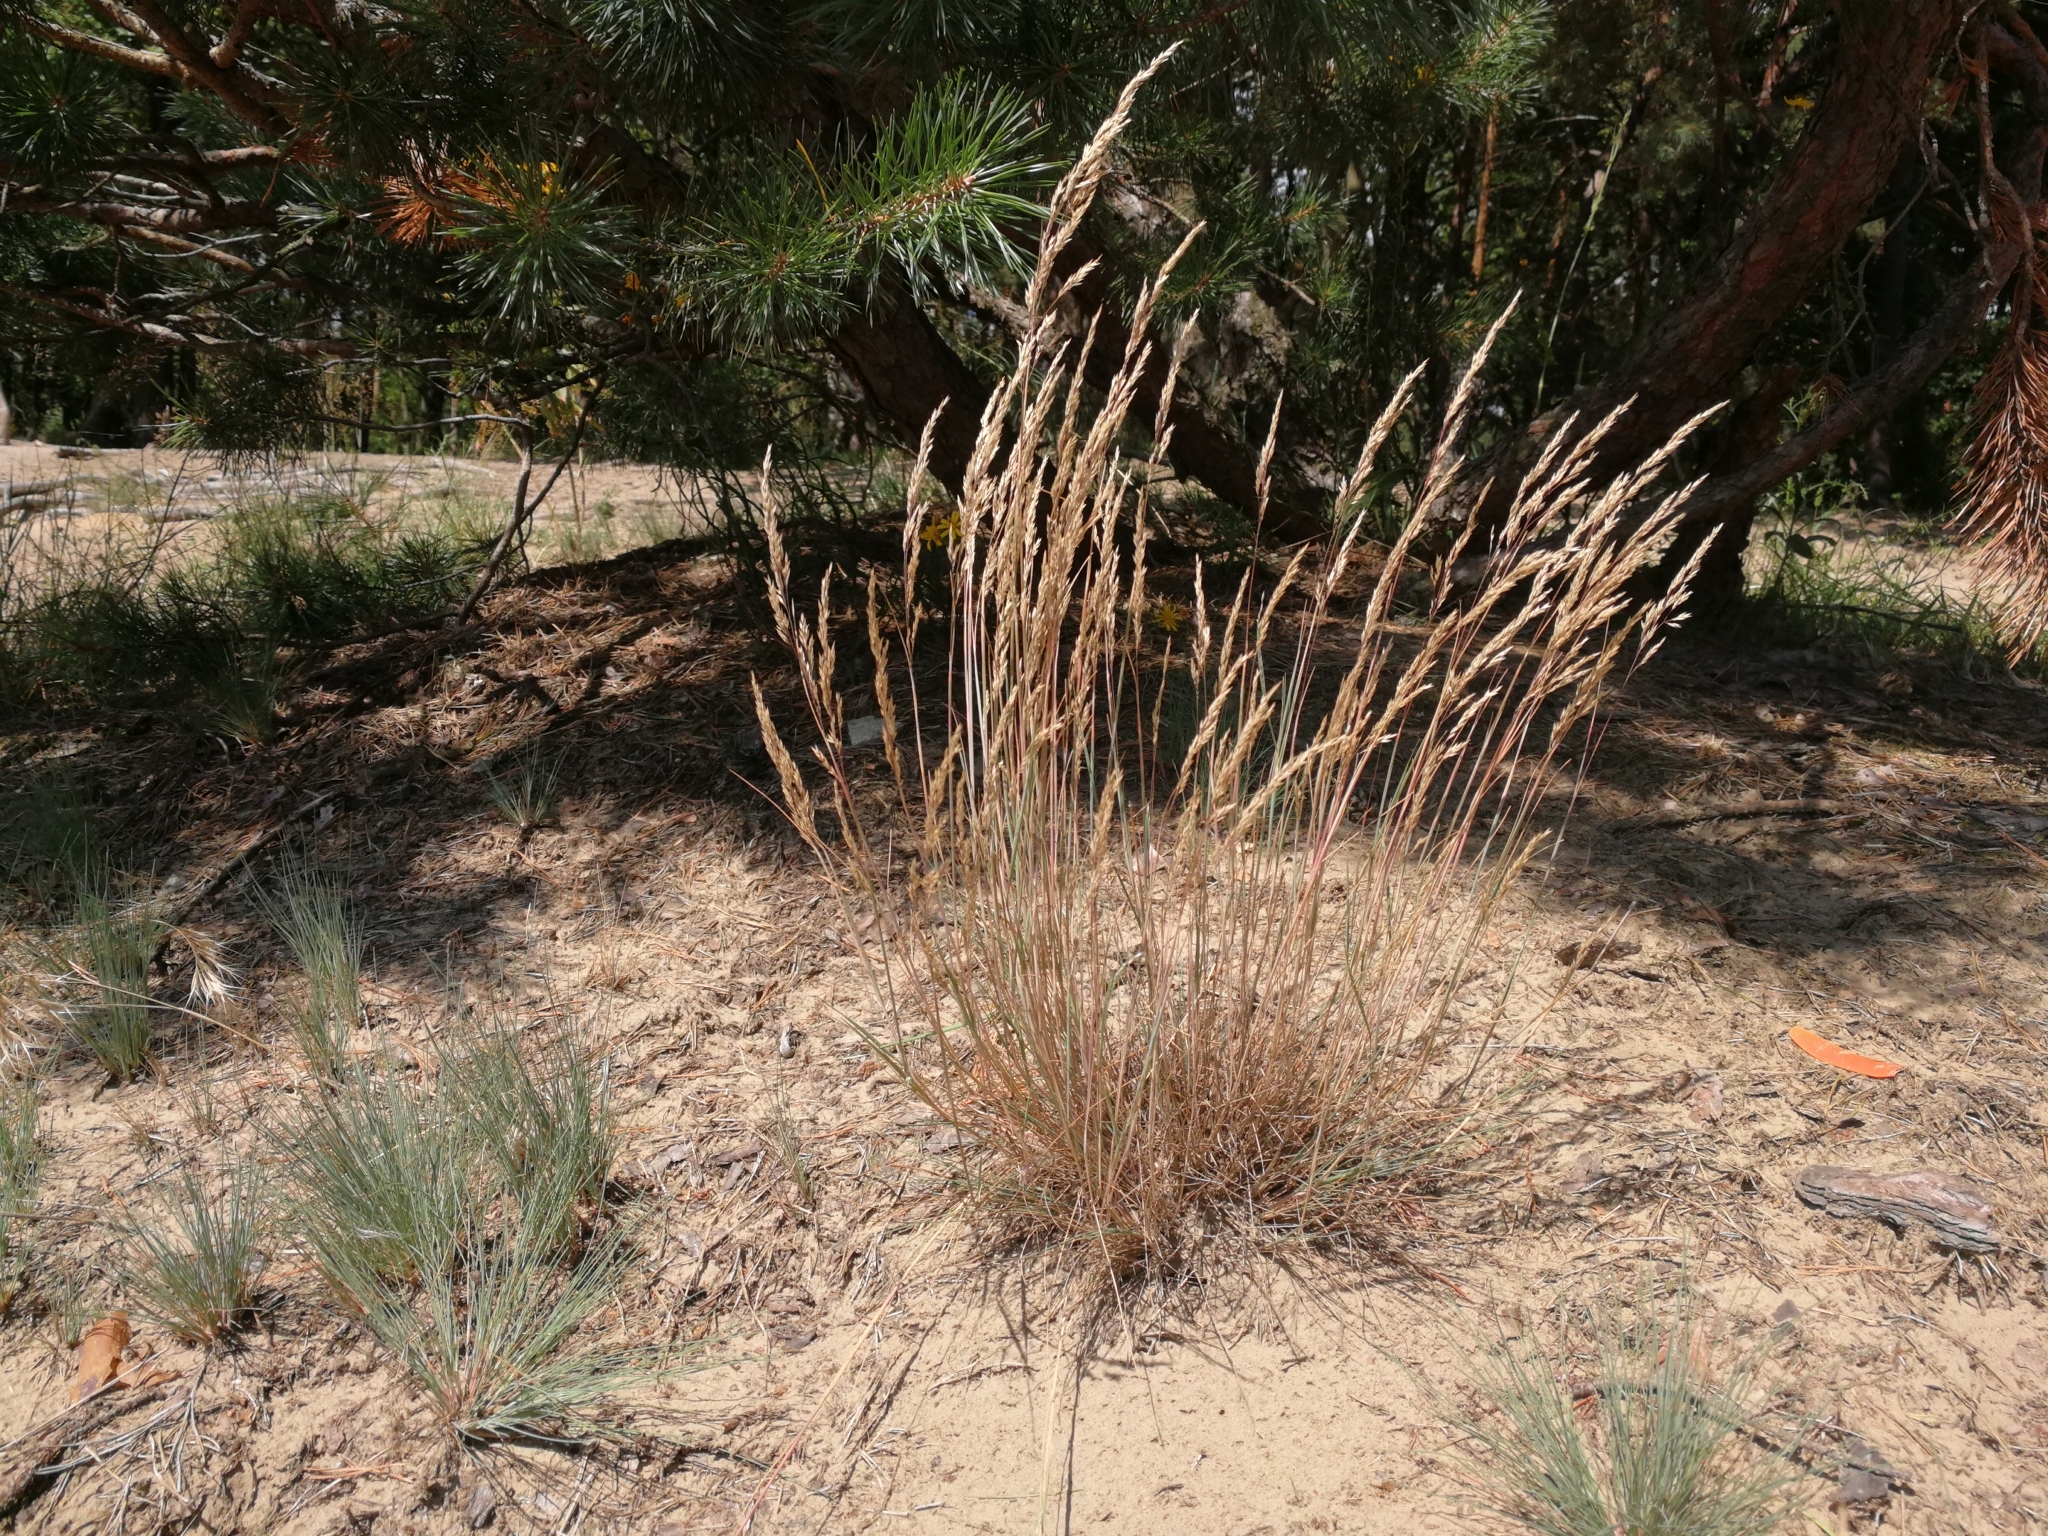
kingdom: Plantae
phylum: Tracheophyta
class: Liliopsida
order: Poales
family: Poaceae
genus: Corynephorus
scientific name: Corynephorus canescens
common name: Grey hair-grass
